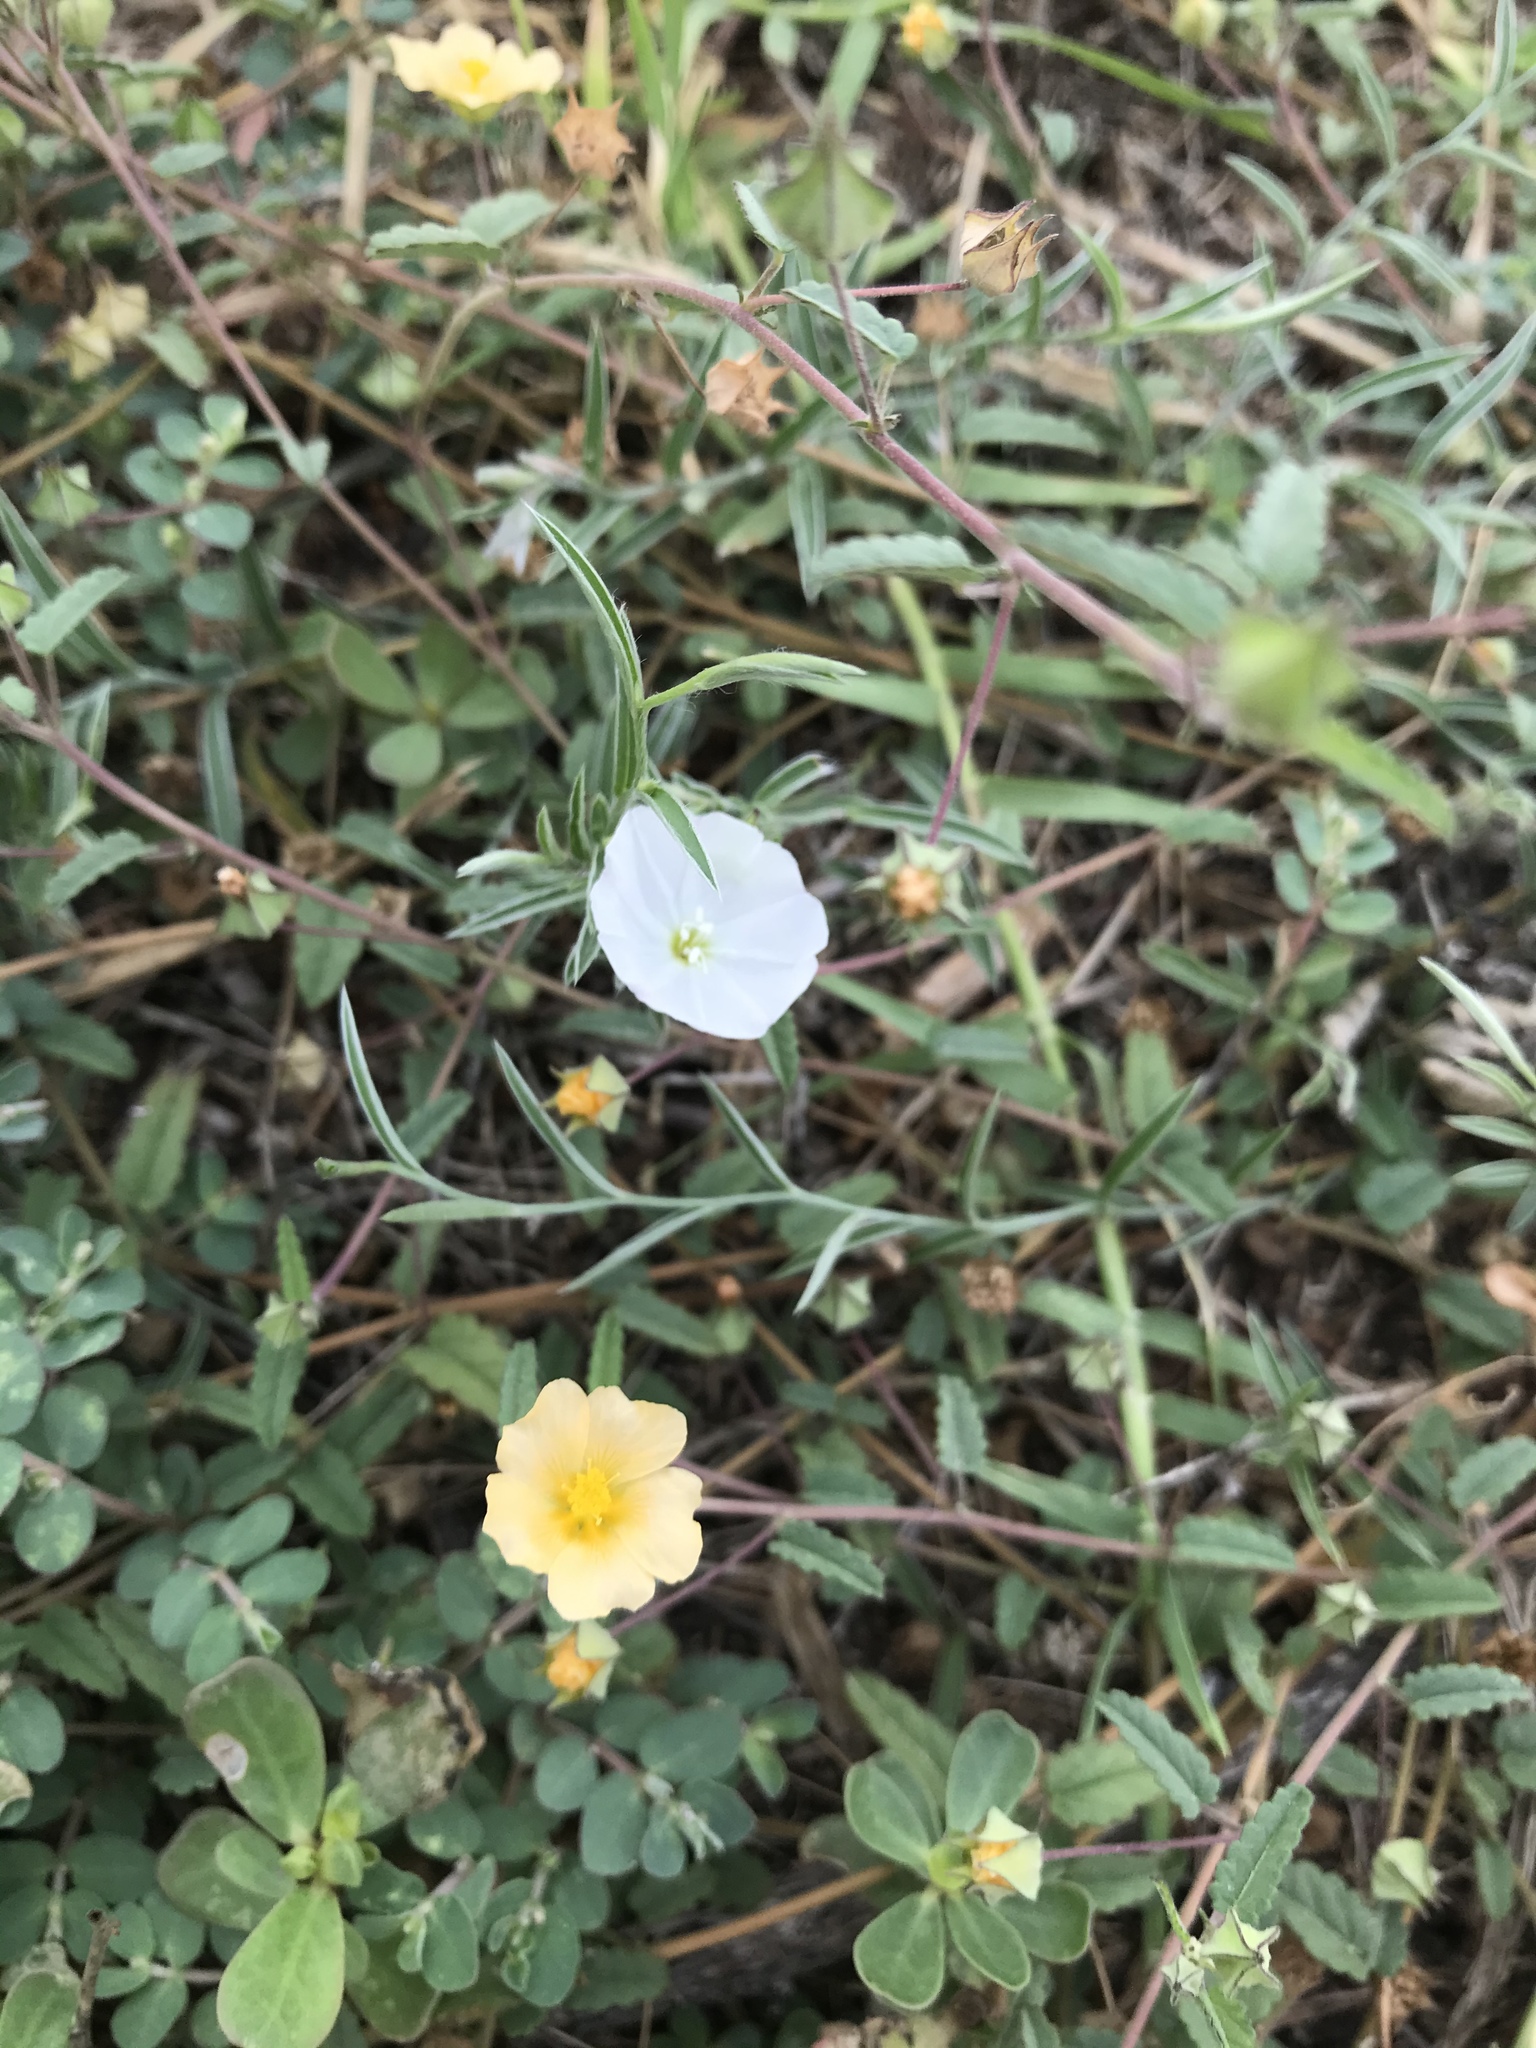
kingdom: Plantae
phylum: Tracheophyta
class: Magnoliopsida
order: Solanales
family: Convolvulaceae
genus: Evolvulus
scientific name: Evolvulus sericeus
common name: Blue dots
